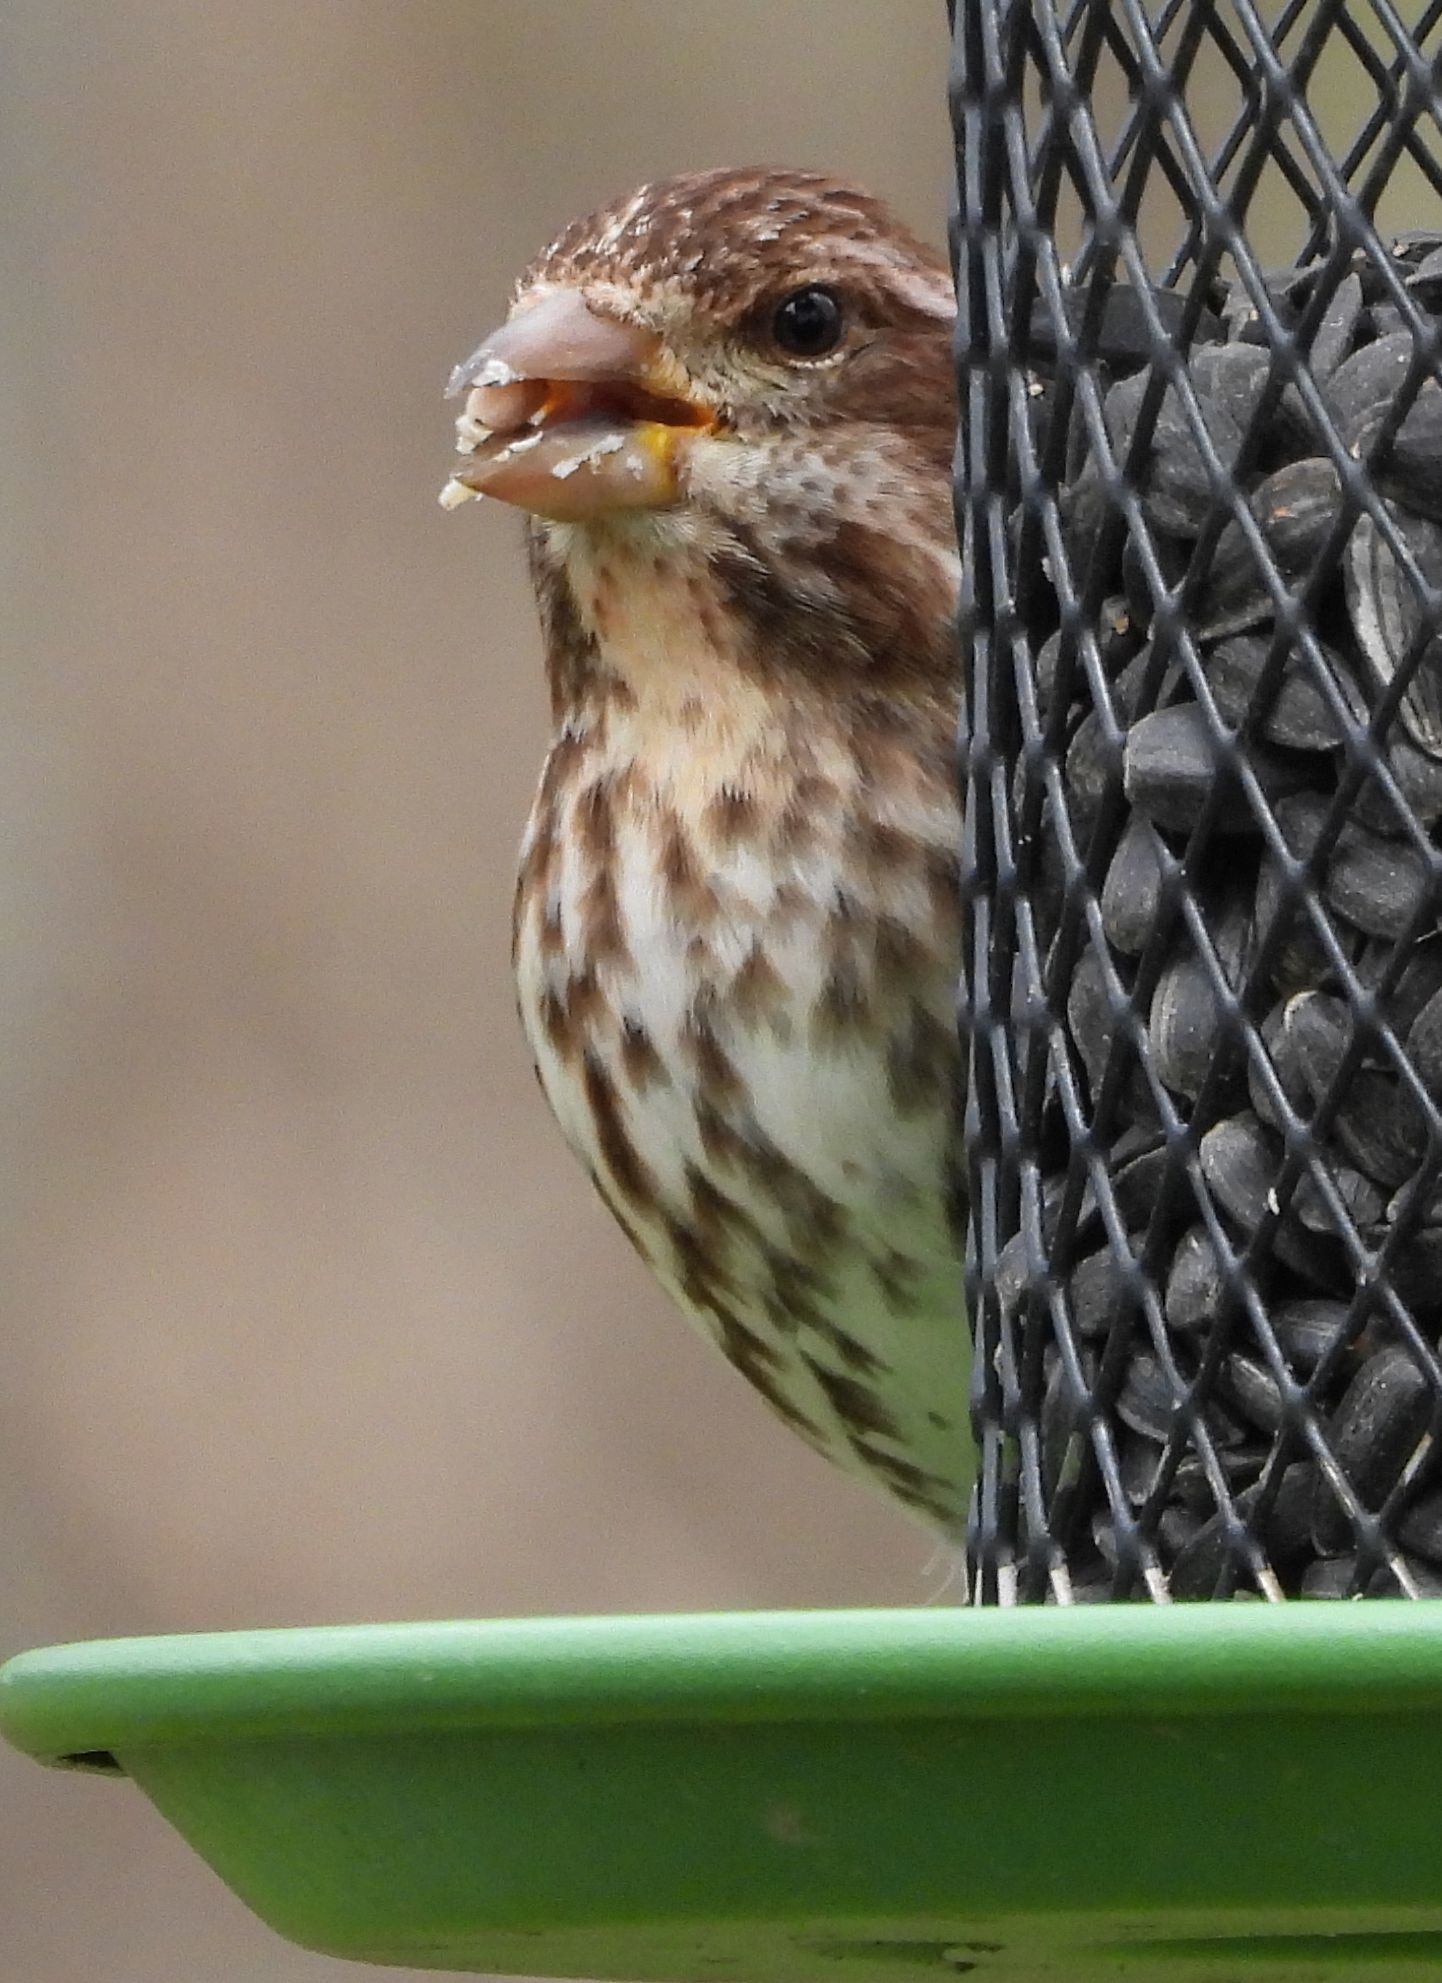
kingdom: Animalia
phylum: Chordata
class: Aves
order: Passeriformes
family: Fringillidae
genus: Haemorhous
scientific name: Haemorhous purpureus
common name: Purple finch
